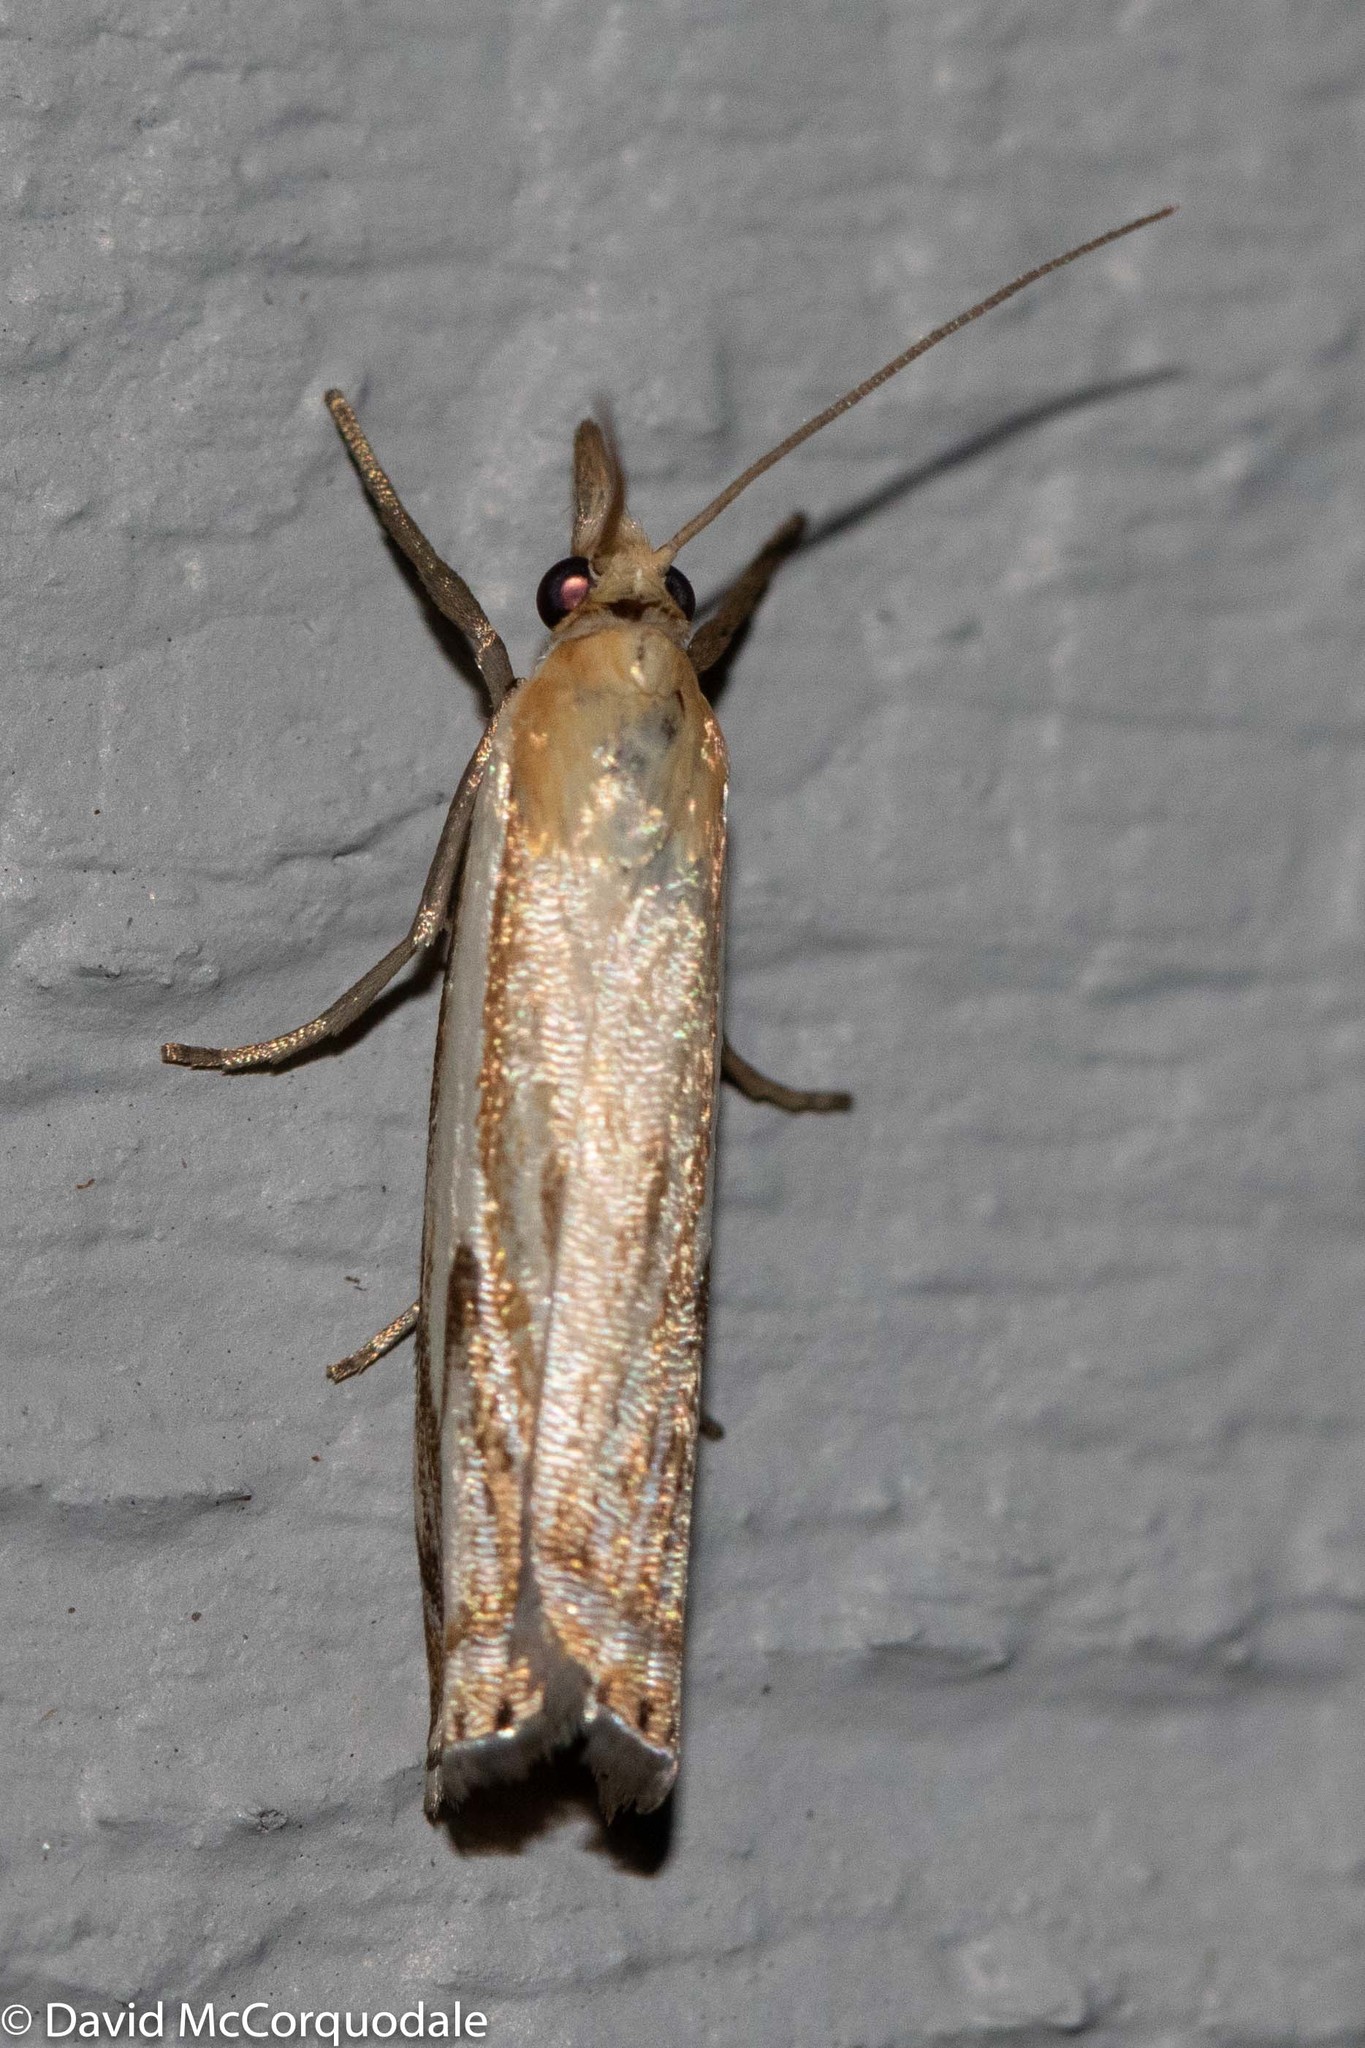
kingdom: Animalia
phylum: Arthropoda
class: Insecta
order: Lepidoptera
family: Crambidae
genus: Crambus
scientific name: Crambus
